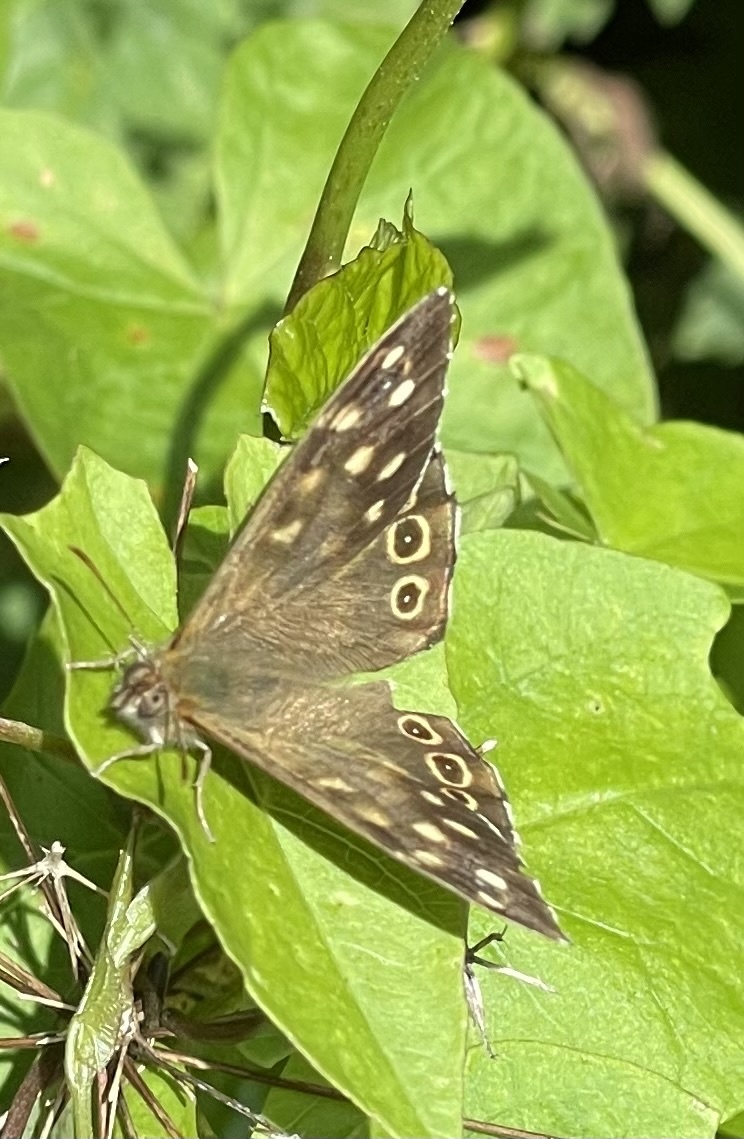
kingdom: Animalia
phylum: Arthropoda
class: Insecta
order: Lepidoptera
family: Nymphalidae
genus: Pararge
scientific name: Pararge aegeria
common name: Speckled wood
